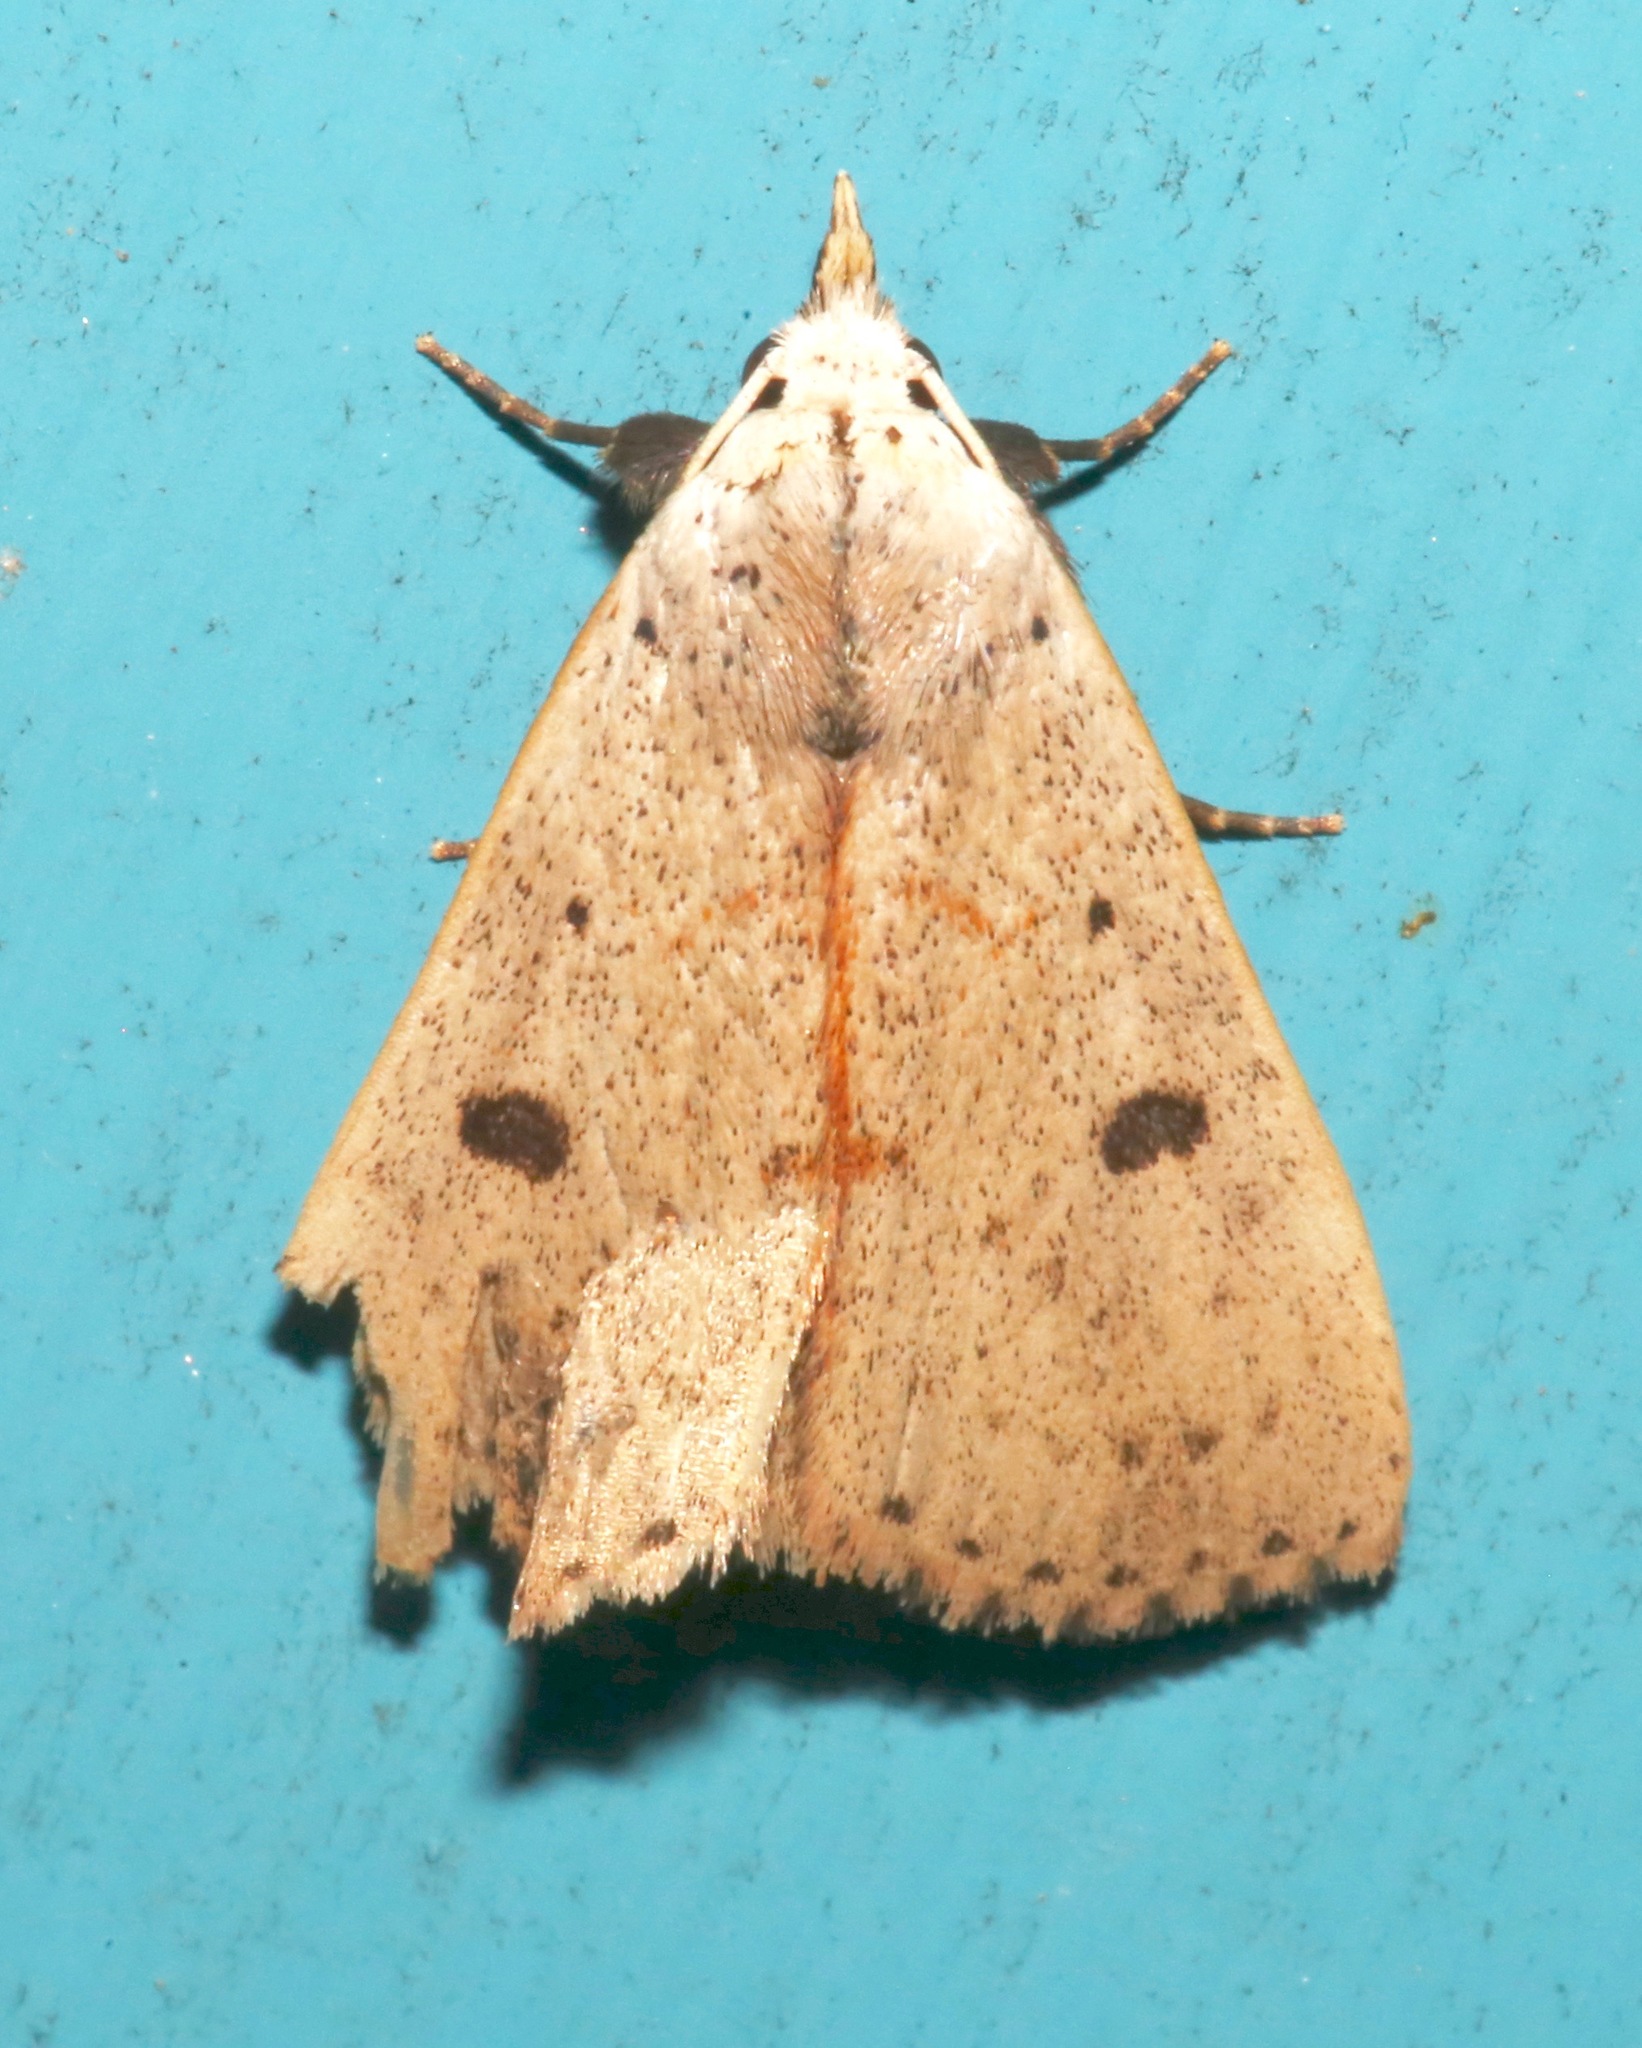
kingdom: Animalia
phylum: Arthropoda
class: Insecta
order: Lepidoptera
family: Erebidae
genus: Scolecocampa
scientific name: Scolecocampa liburna
